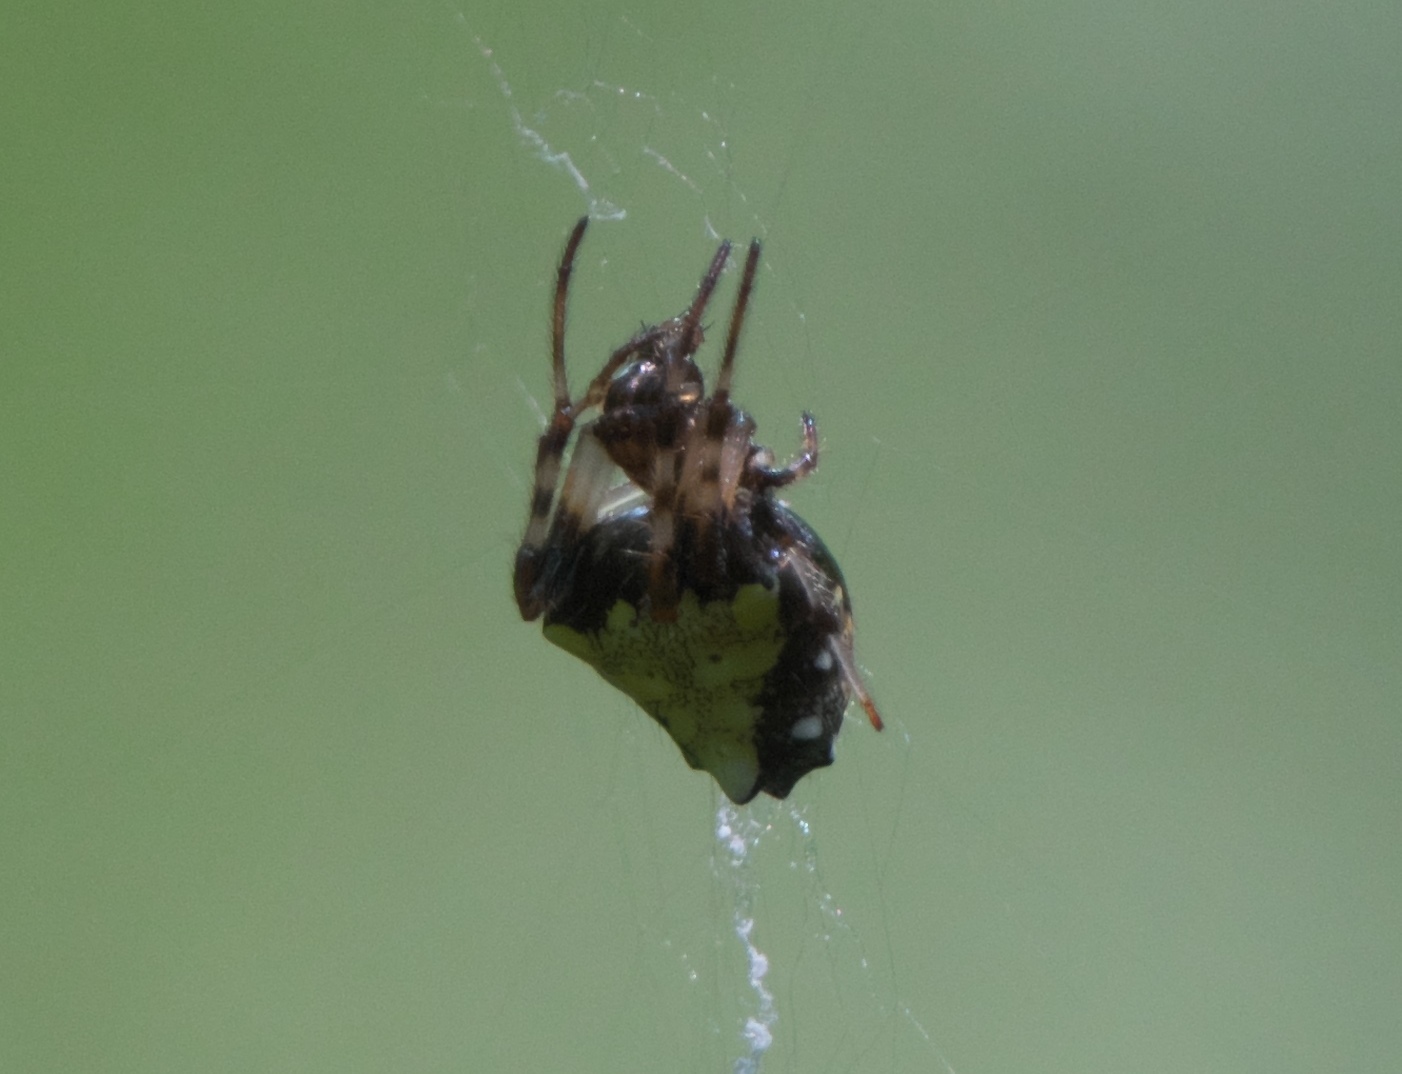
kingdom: Animalia
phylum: Arthropoda
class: Arachnida
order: Araneae
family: Araneidae
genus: Verrucosa
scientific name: Verrucosa arenata
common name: Orb weavers
